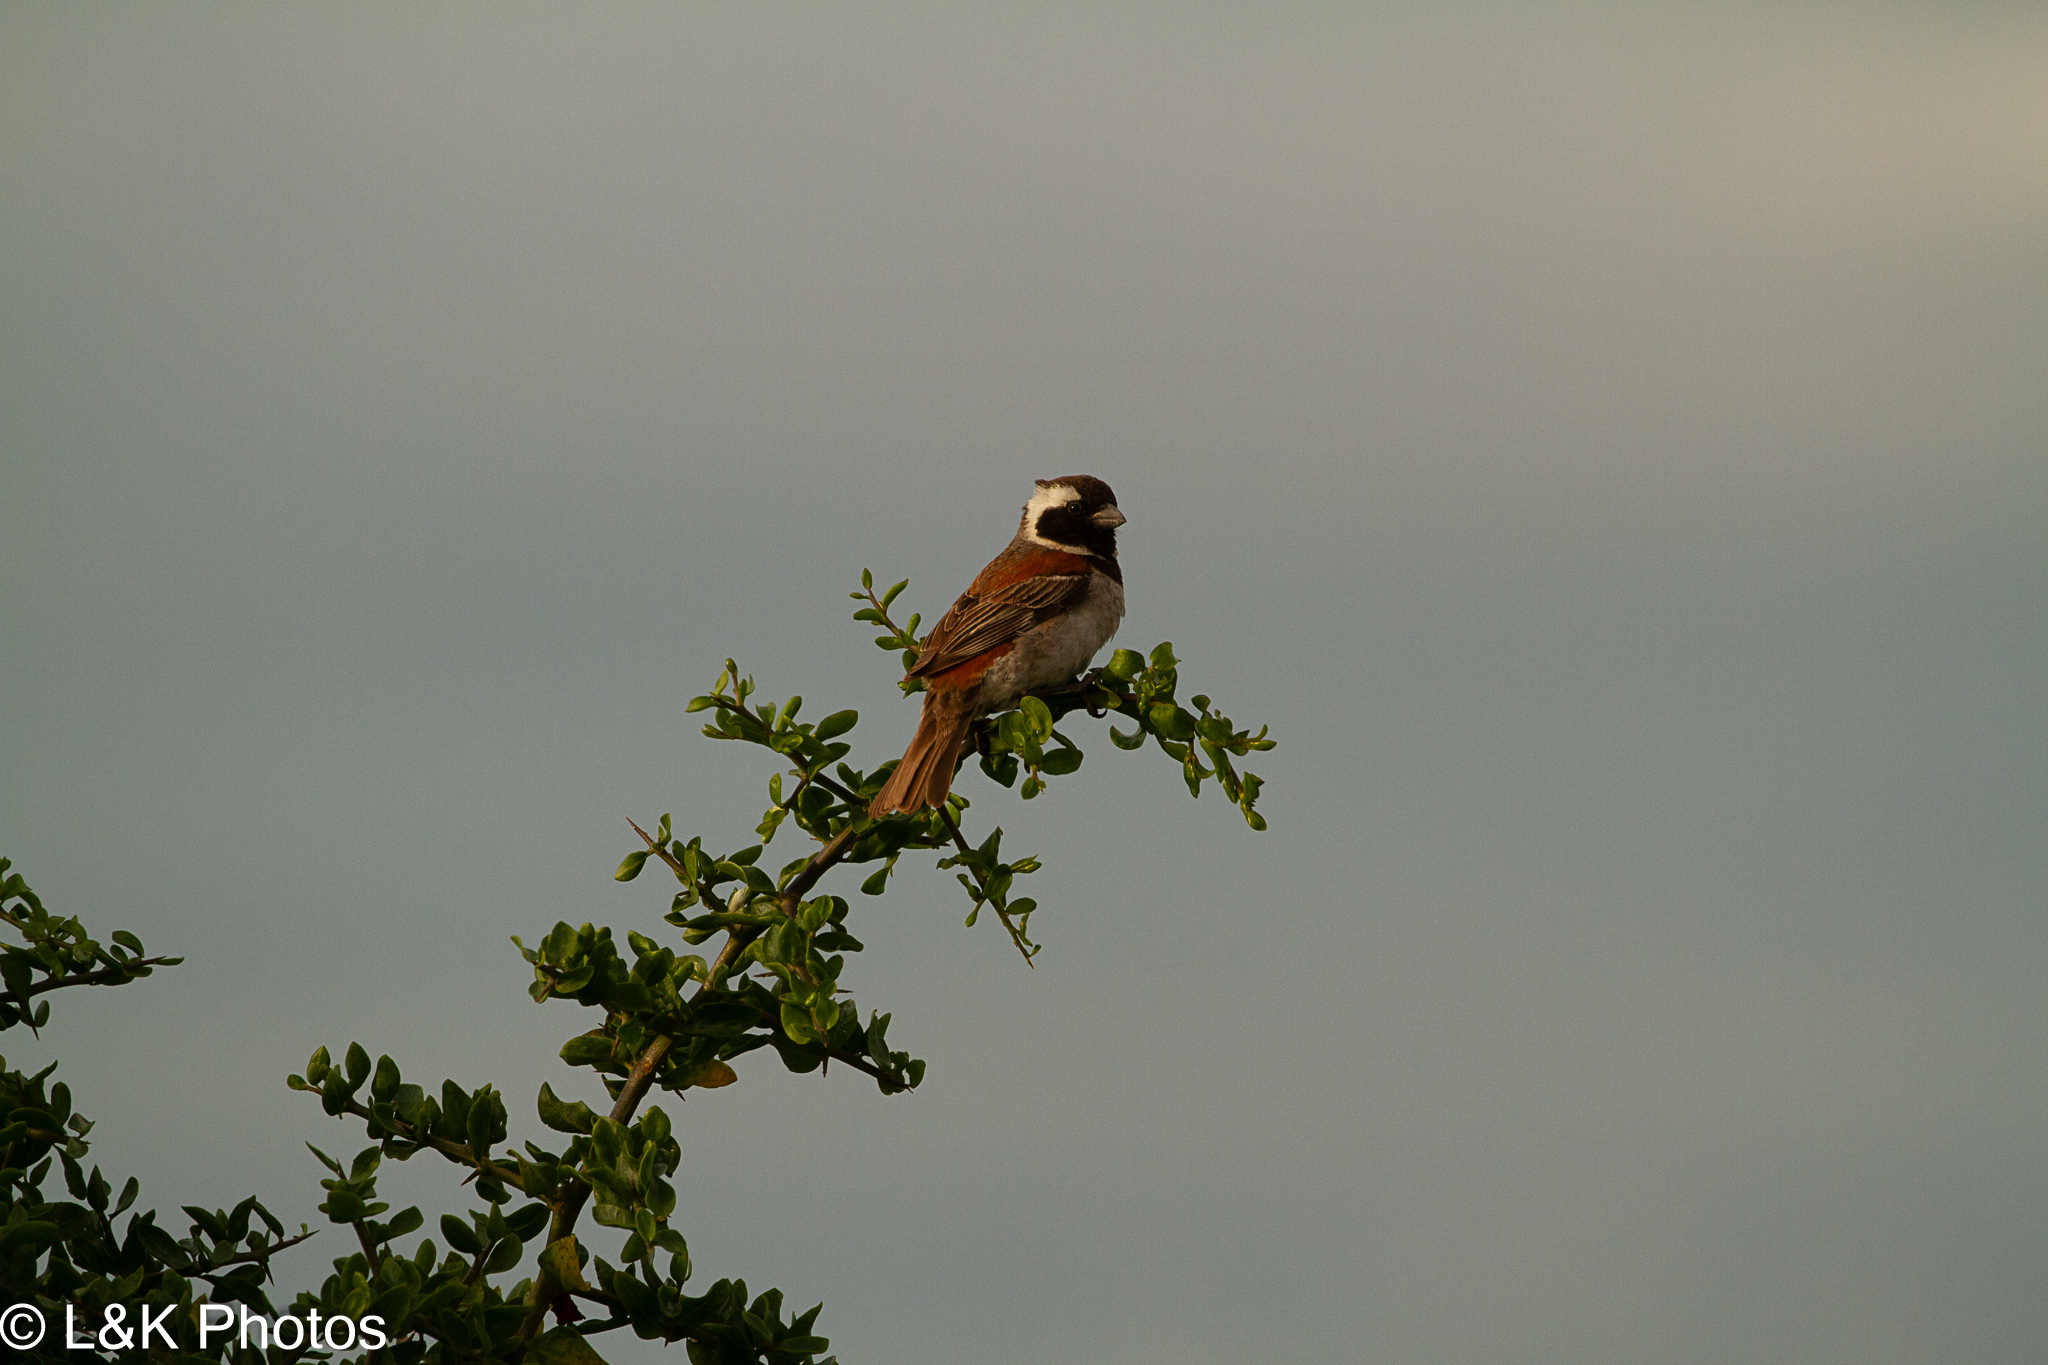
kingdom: Animalia
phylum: Chordata
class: Aves
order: Passeriformes
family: Passeridae
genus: Passer
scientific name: Passer melanurus
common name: Cape sparrow
